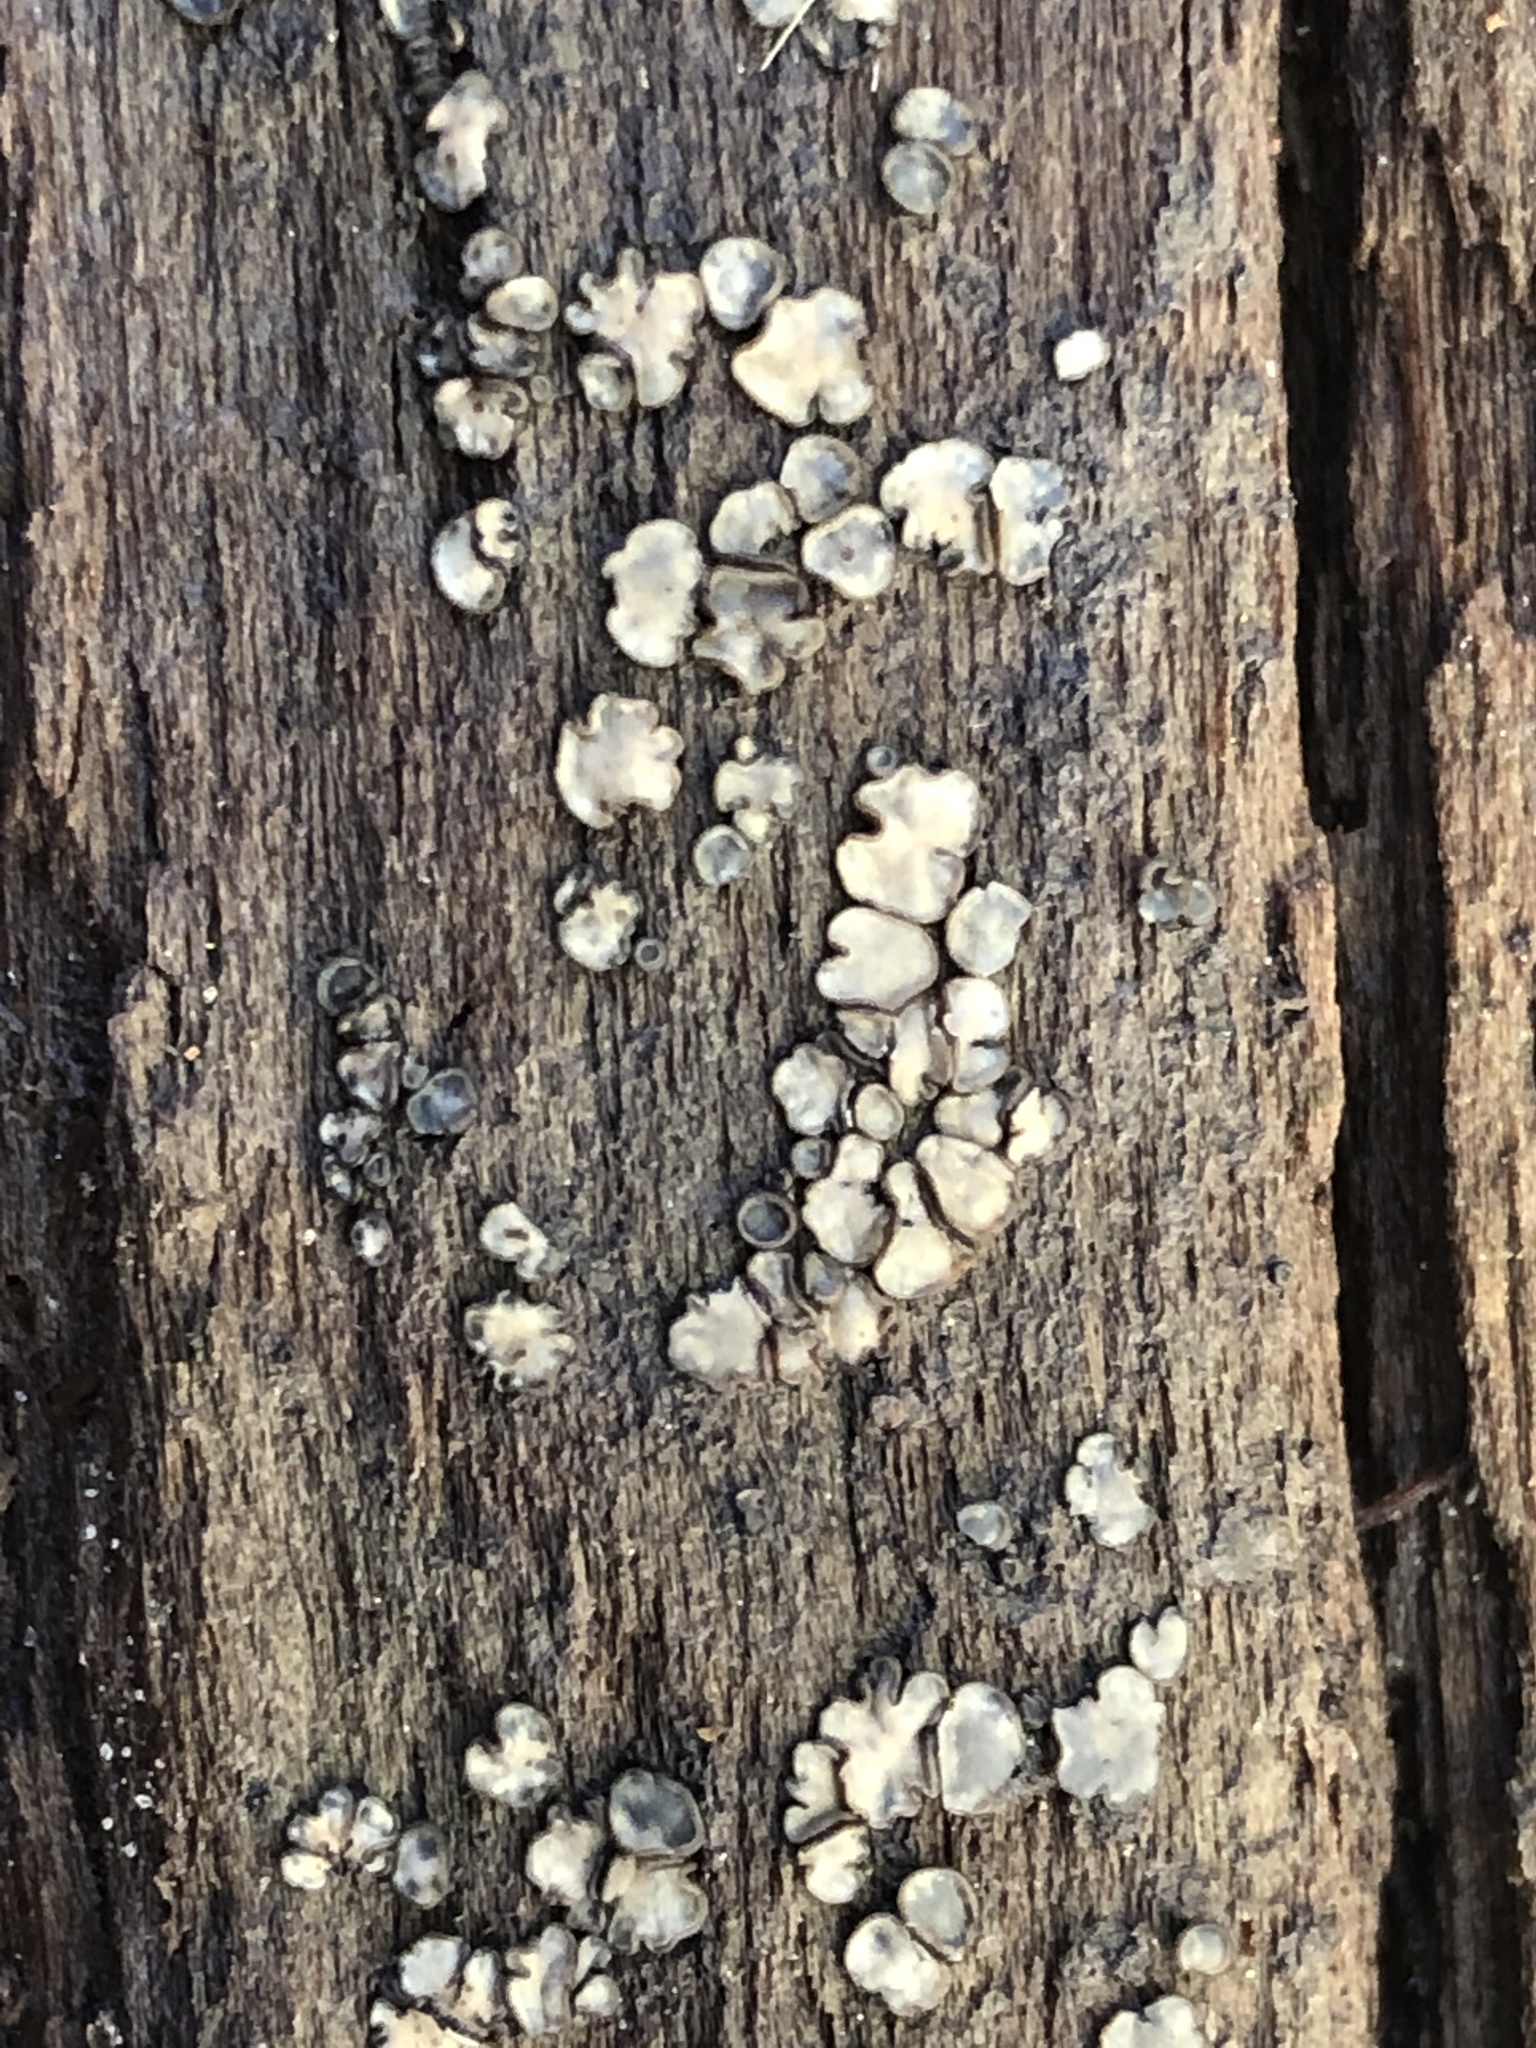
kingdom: Fungi
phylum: Ascomycota
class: Leotiomycetes
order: Helotiales
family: Mollisiaceae
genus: Mollisia
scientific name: Mollisia cinerea
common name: Common grey disco
